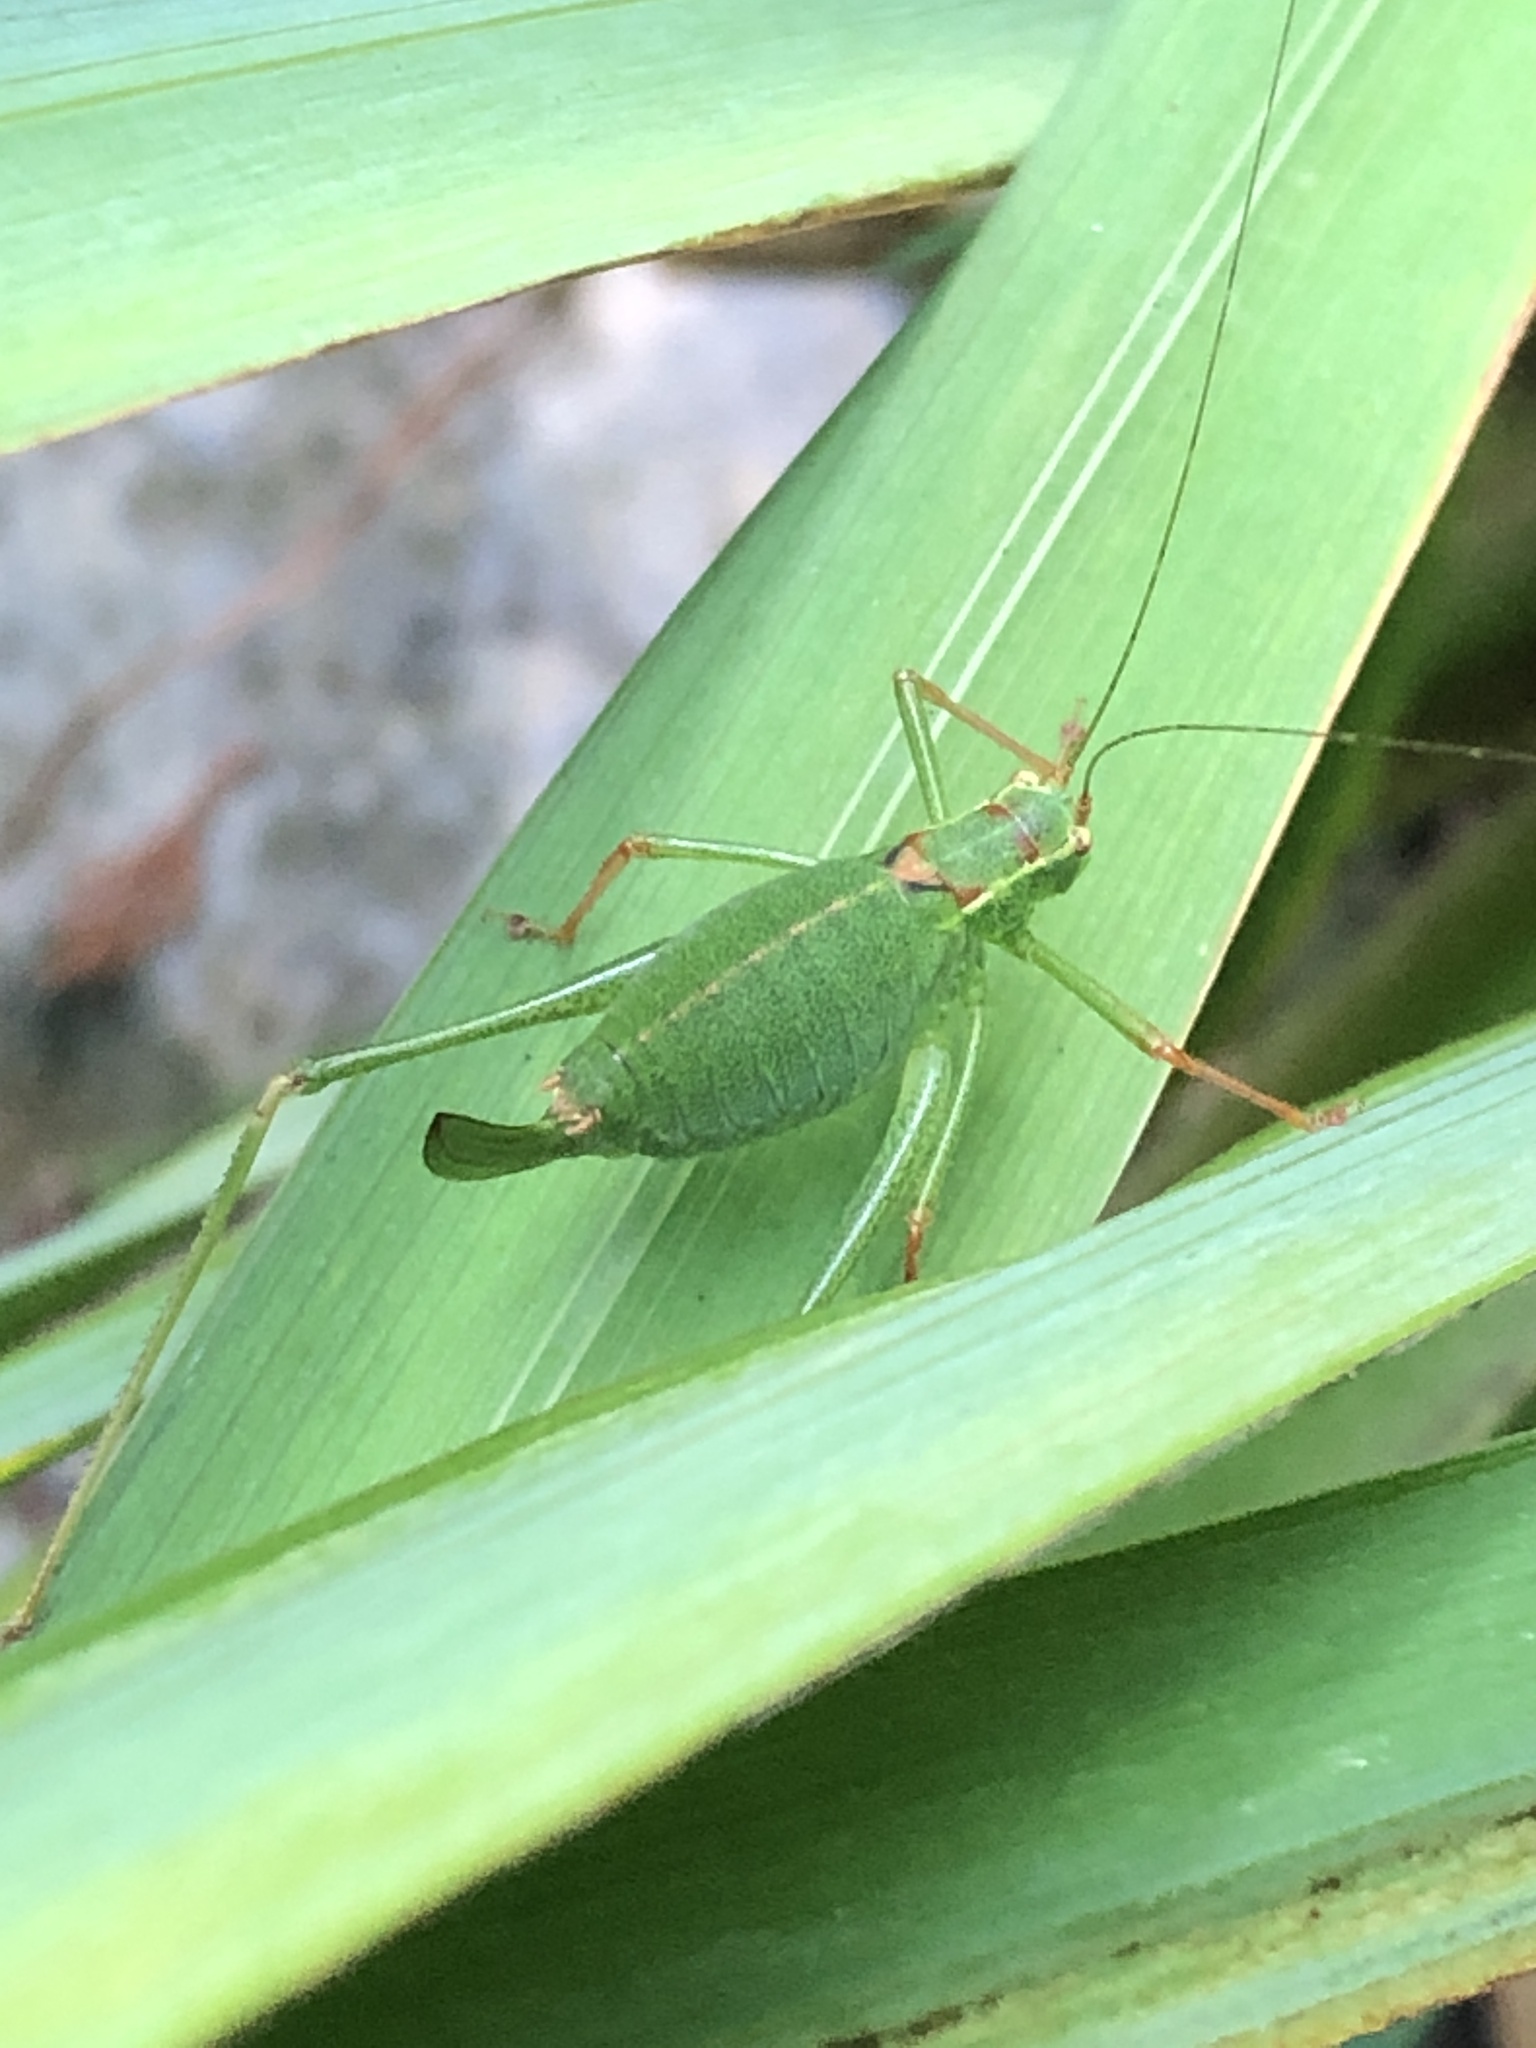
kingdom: Animalia
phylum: Arthropoda
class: Insecta
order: Orthoptera
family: Tettigoniidae
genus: Leptophyes
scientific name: Leptophyes punctatissima
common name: Speckled bush-cricket
